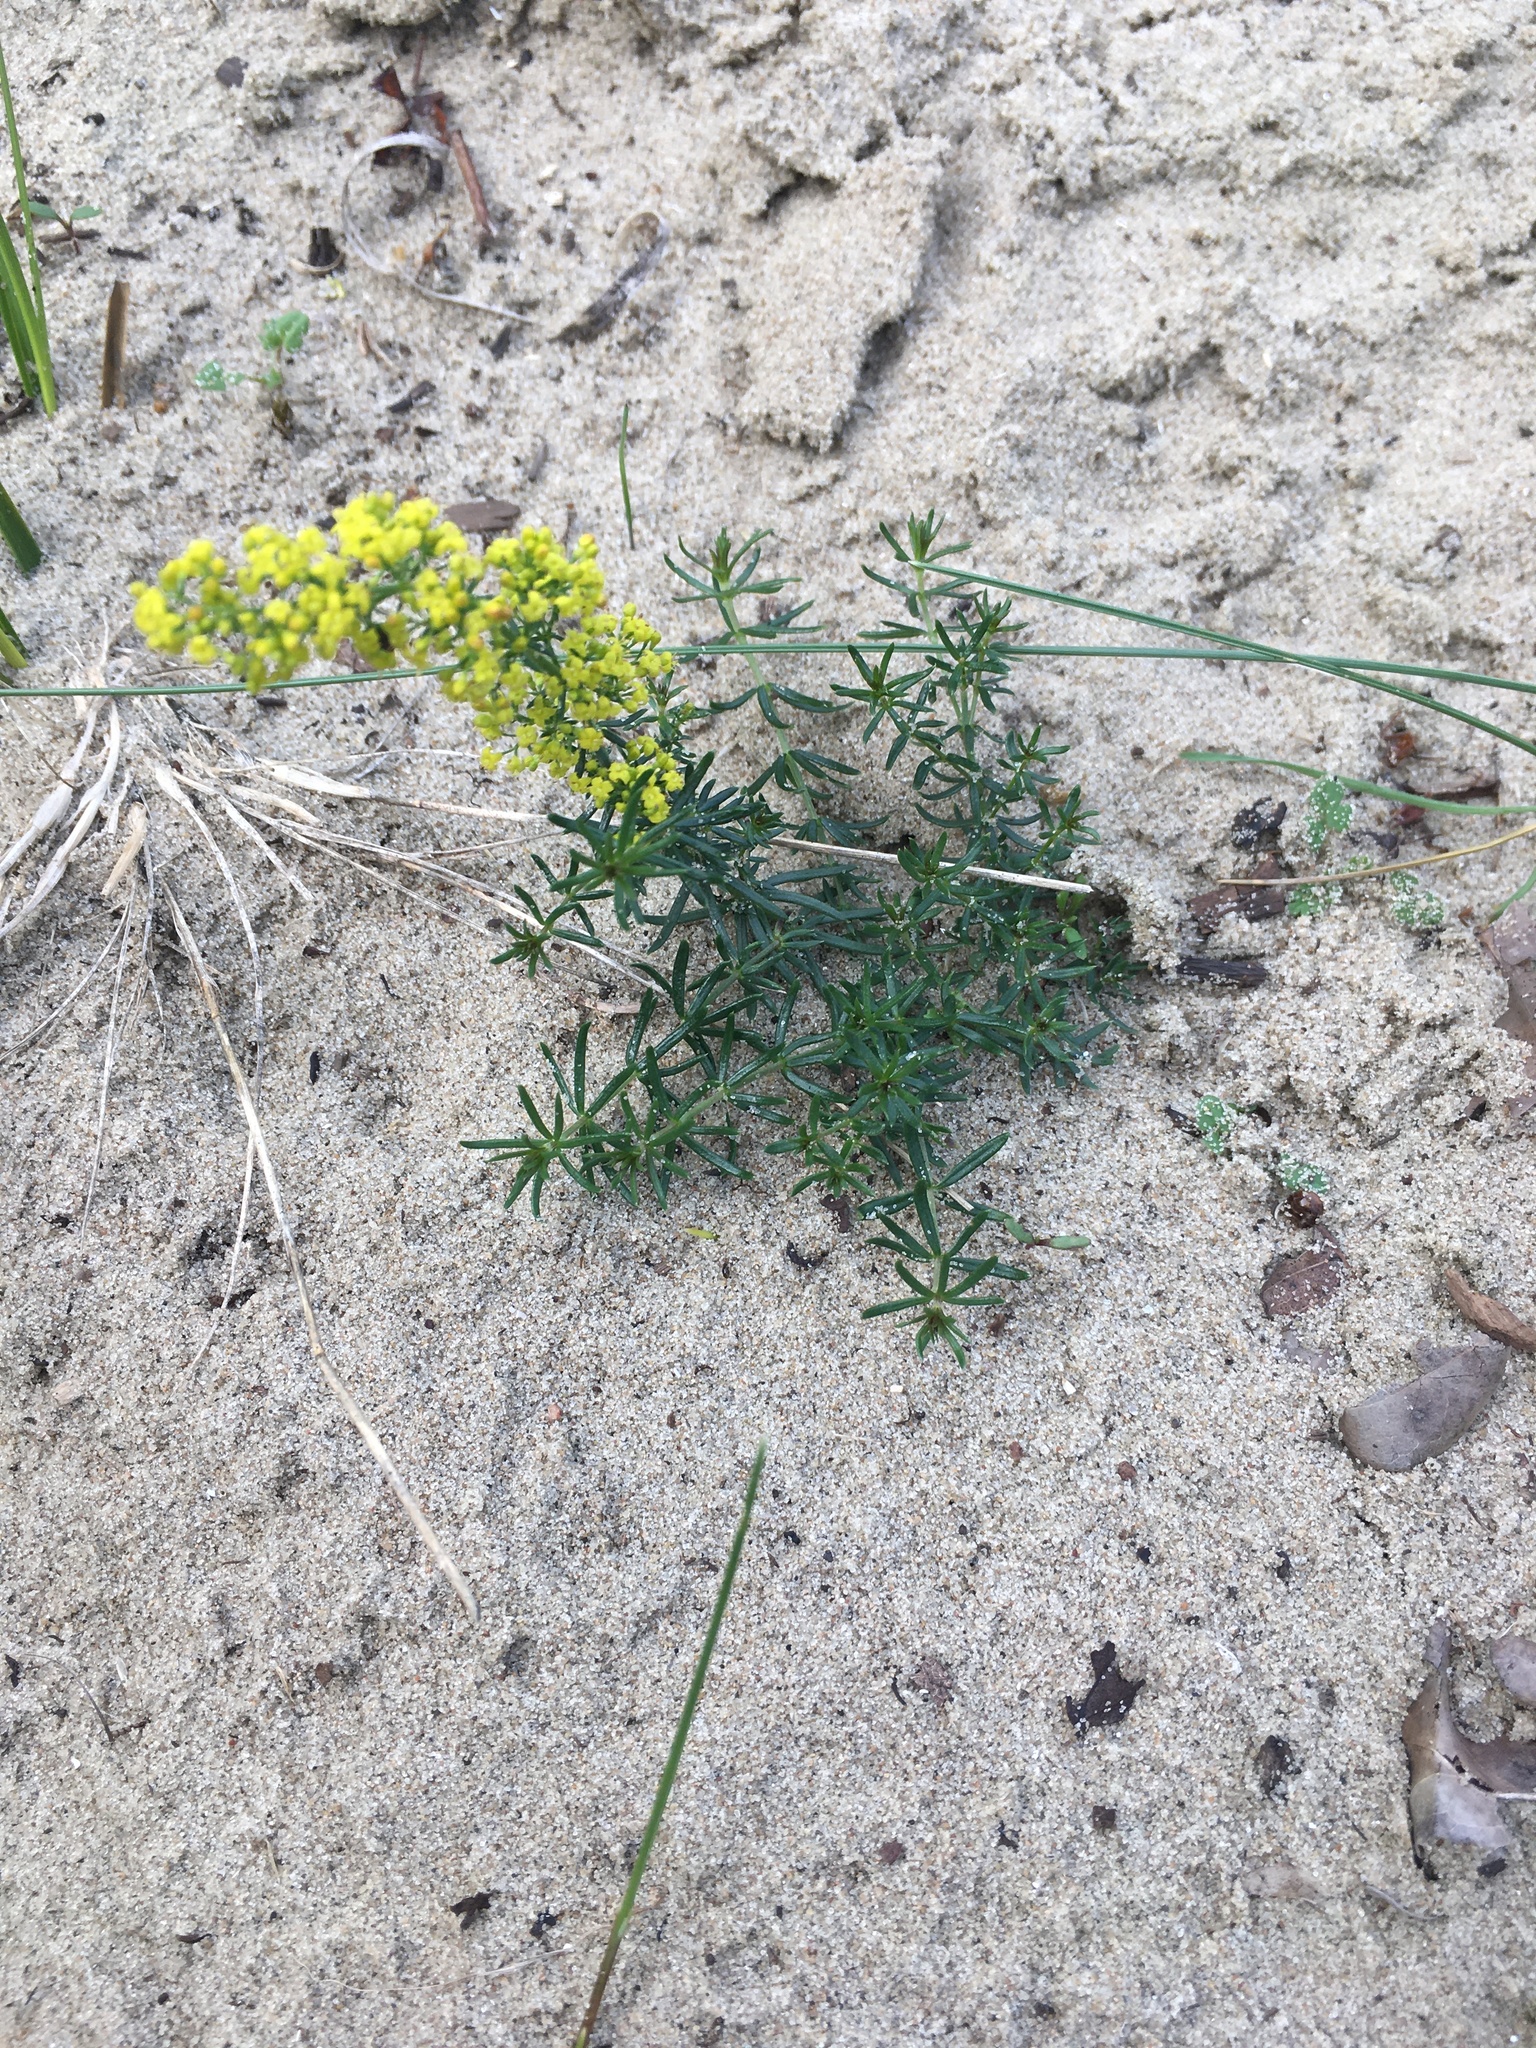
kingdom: Plantae
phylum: Tracheophyta
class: Magnoliopsida
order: Gentianales
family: Rubiaceae
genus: Galium
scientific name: Galium verum
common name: Lady's bedstraw
